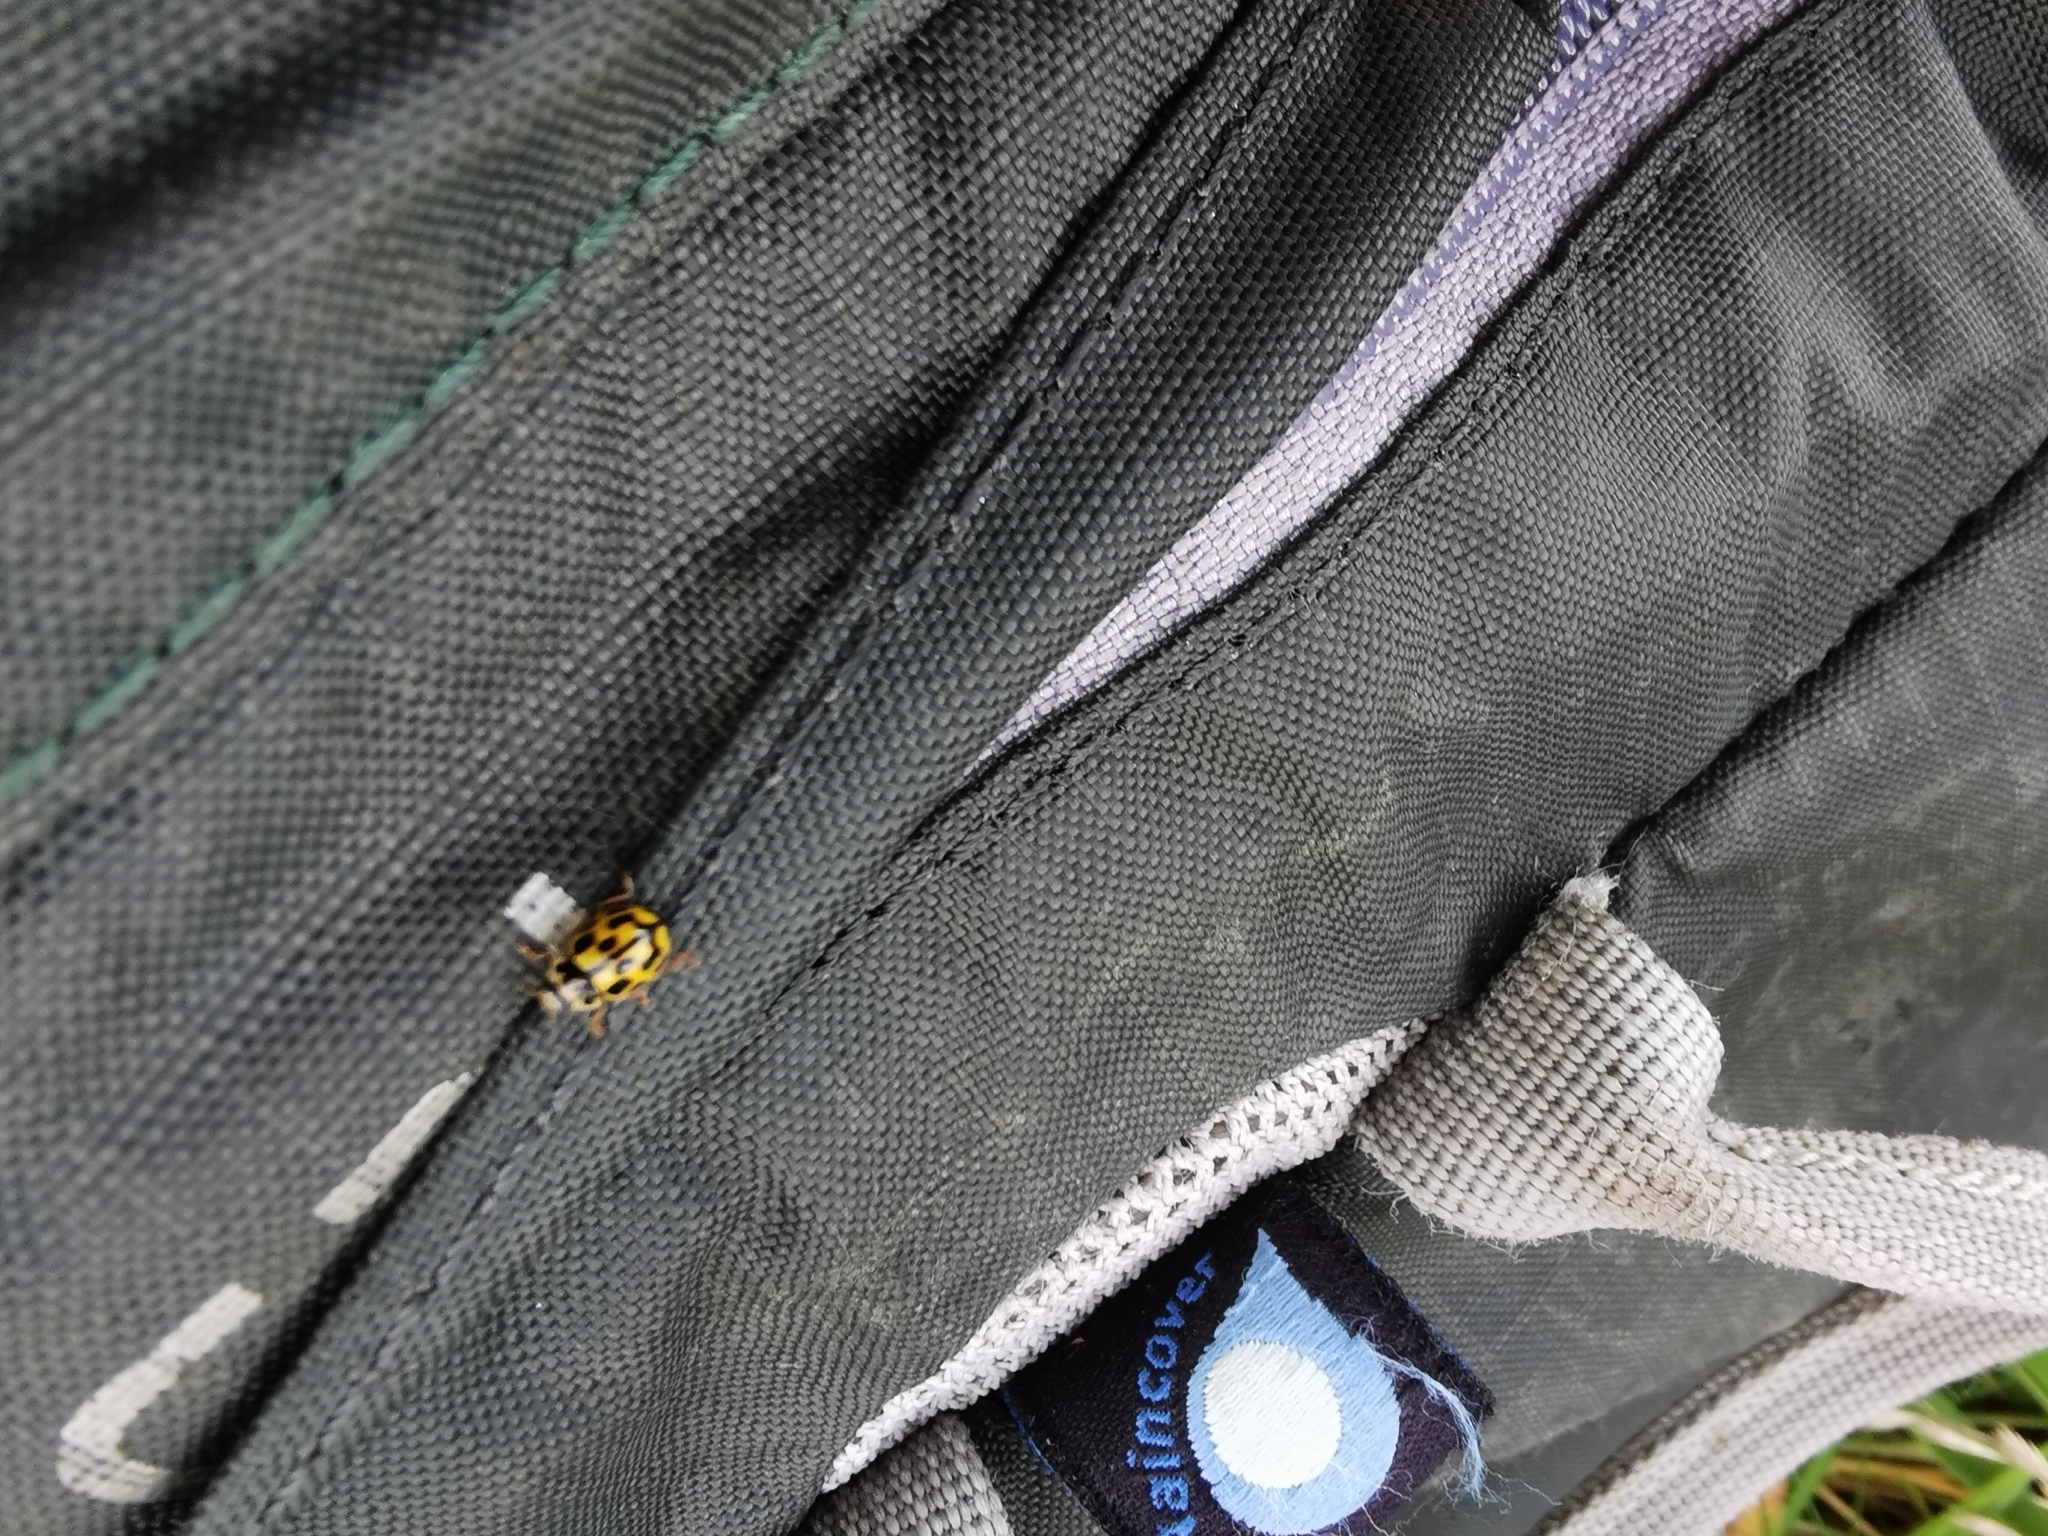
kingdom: Animalia
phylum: Arthropoda
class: Insecta
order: Coleoptera
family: Coccinellidae
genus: Propylaea
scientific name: Propylaea quatuordecimpunctata
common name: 14-spotted ladybird beetle
